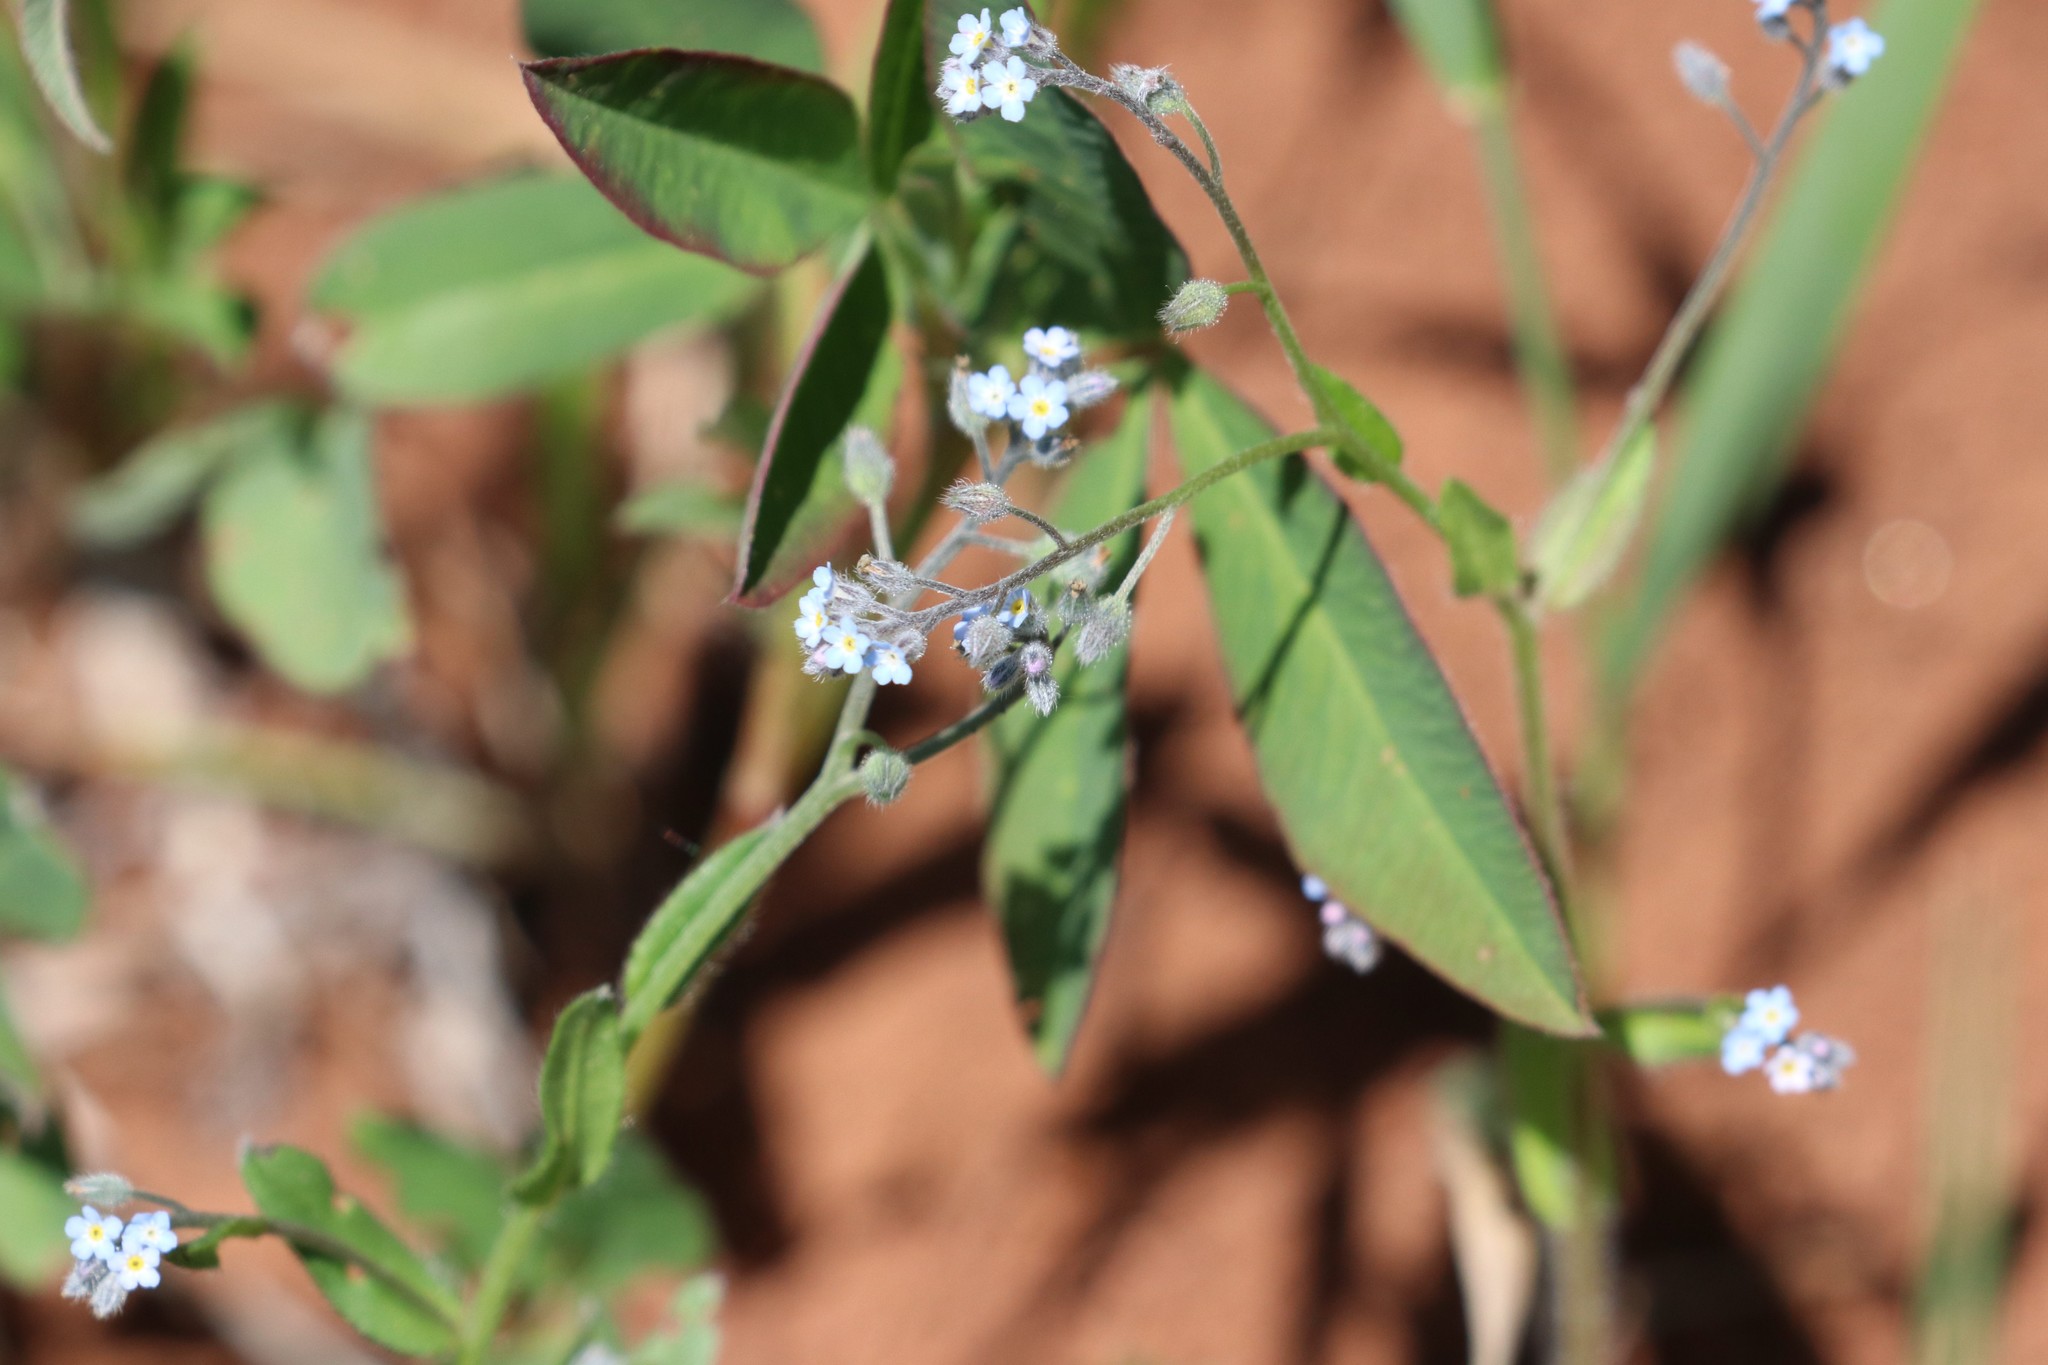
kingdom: Plantae
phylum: Tracheophyta
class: Magnoliopsida
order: Boraginales
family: Boraginaceae
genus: Myosotis
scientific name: Myosotis arvensis
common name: Field forget-me-not
